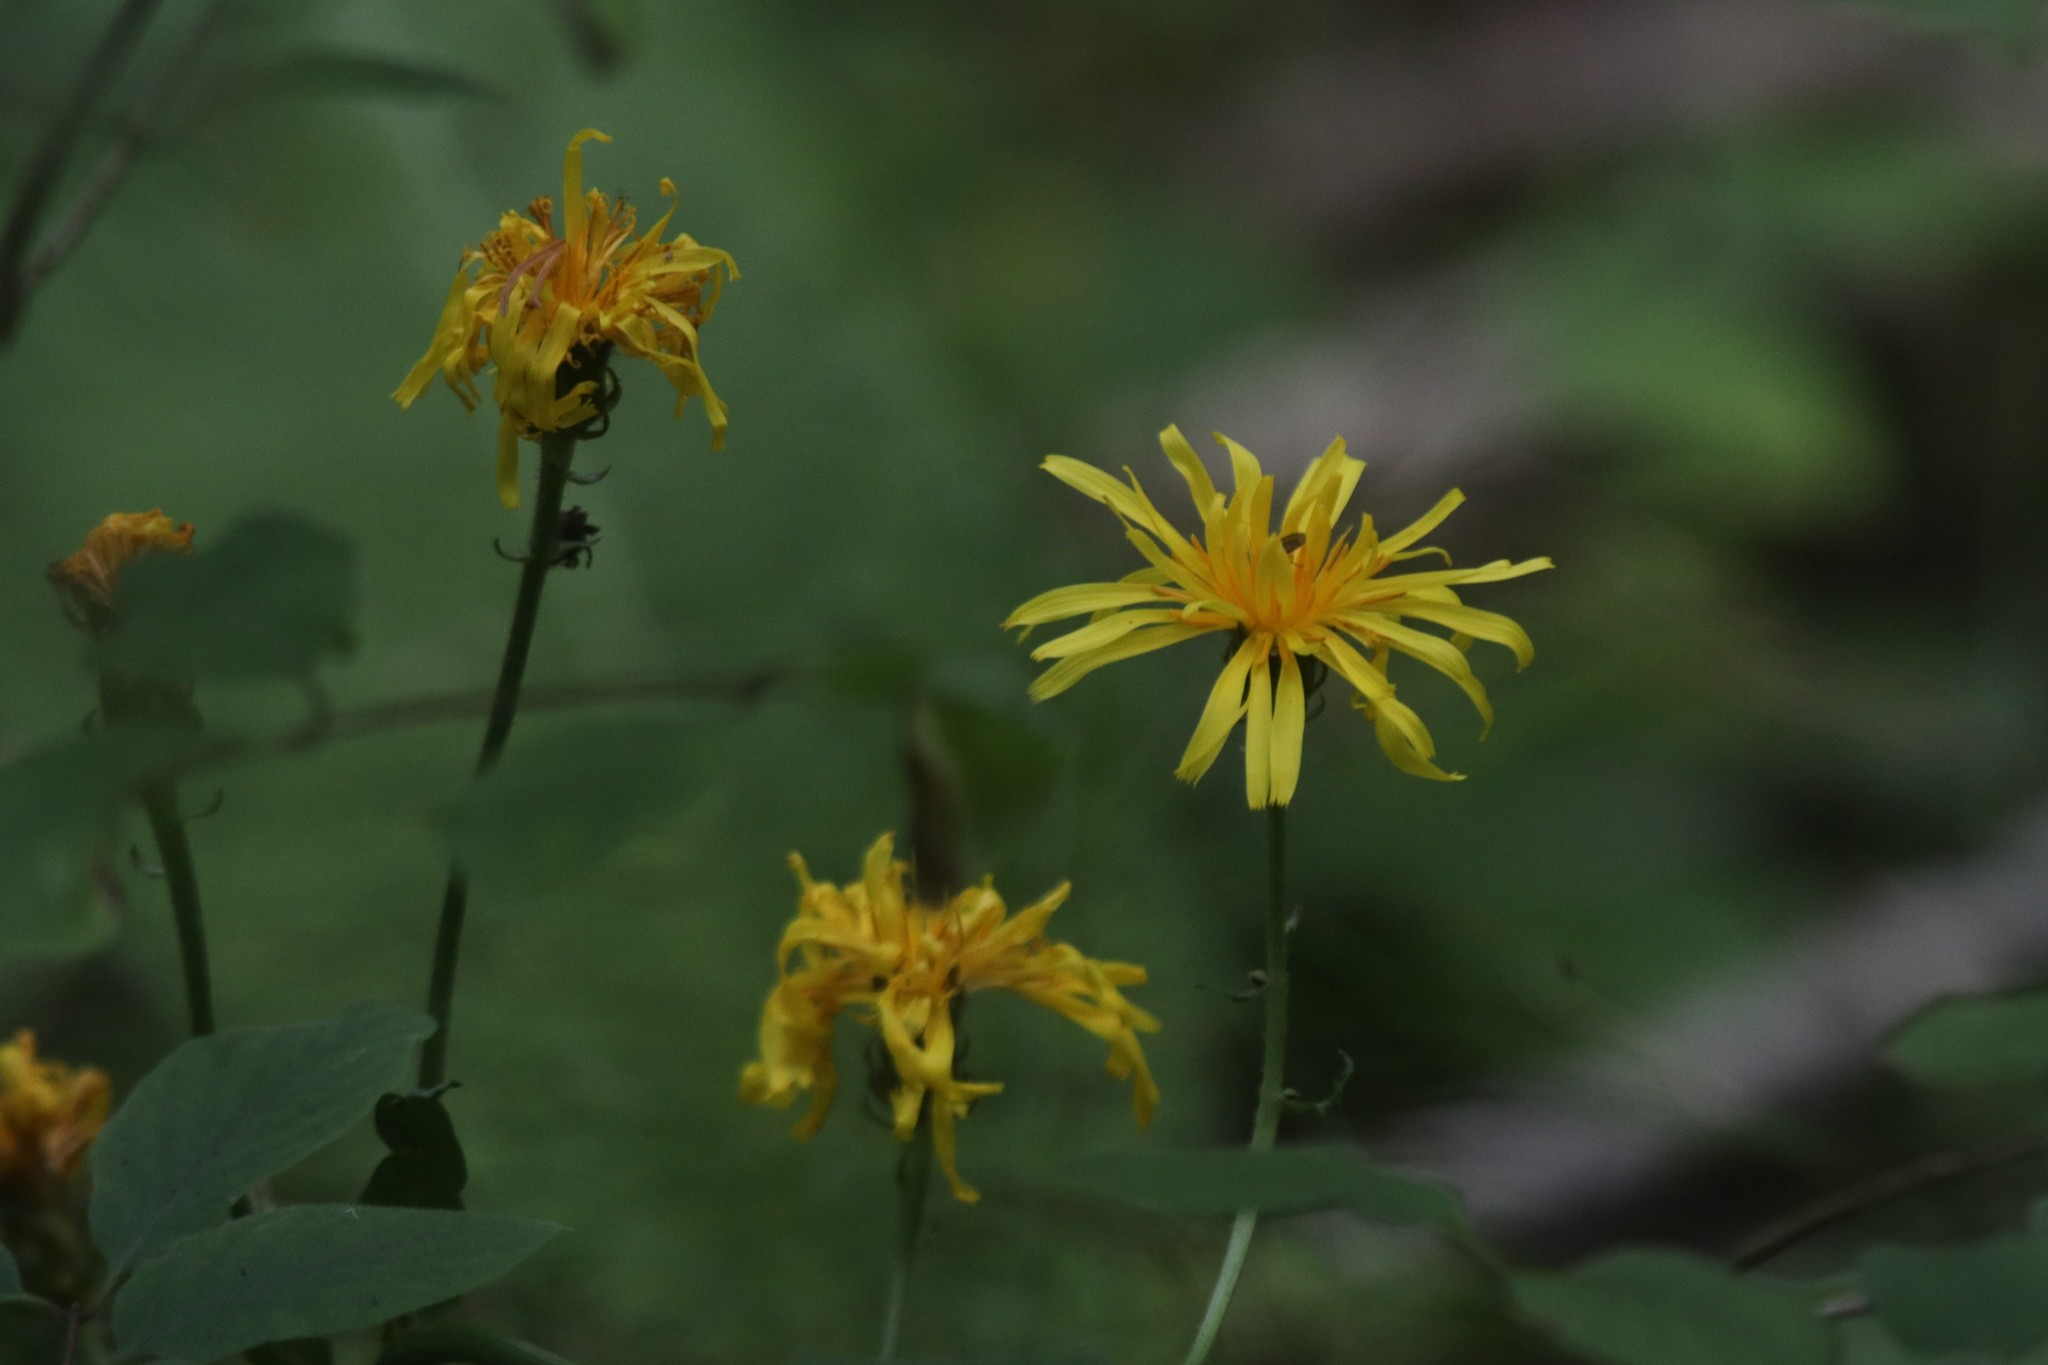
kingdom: Plantae
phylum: Tracheophyta
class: Magnoliopsida
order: Asterales
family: Asteraceae
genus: Crepis
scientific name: Crepis sibirica
